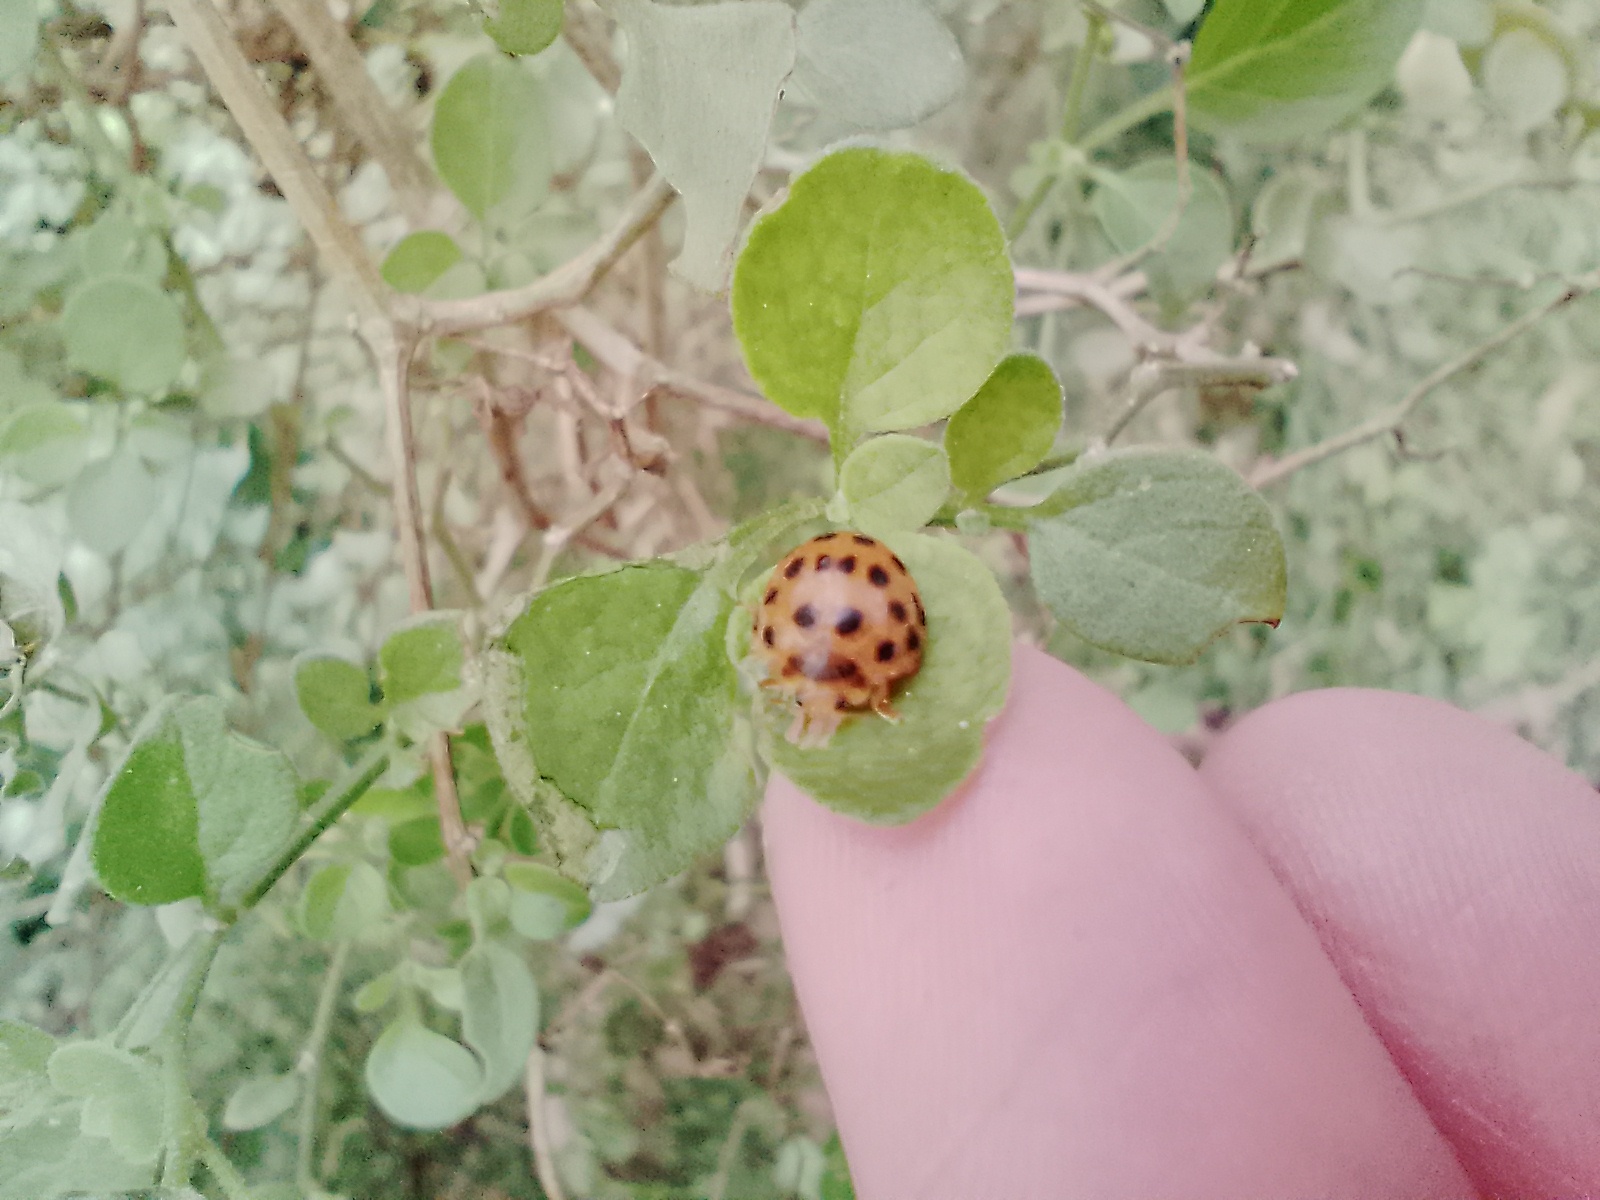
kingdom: Animalia
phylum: Arthropoda
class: Insecta
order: Coleoptera
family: Coccinellidae
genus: Henosepilachna
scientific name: Henosepilachna vigintioctopunctata
